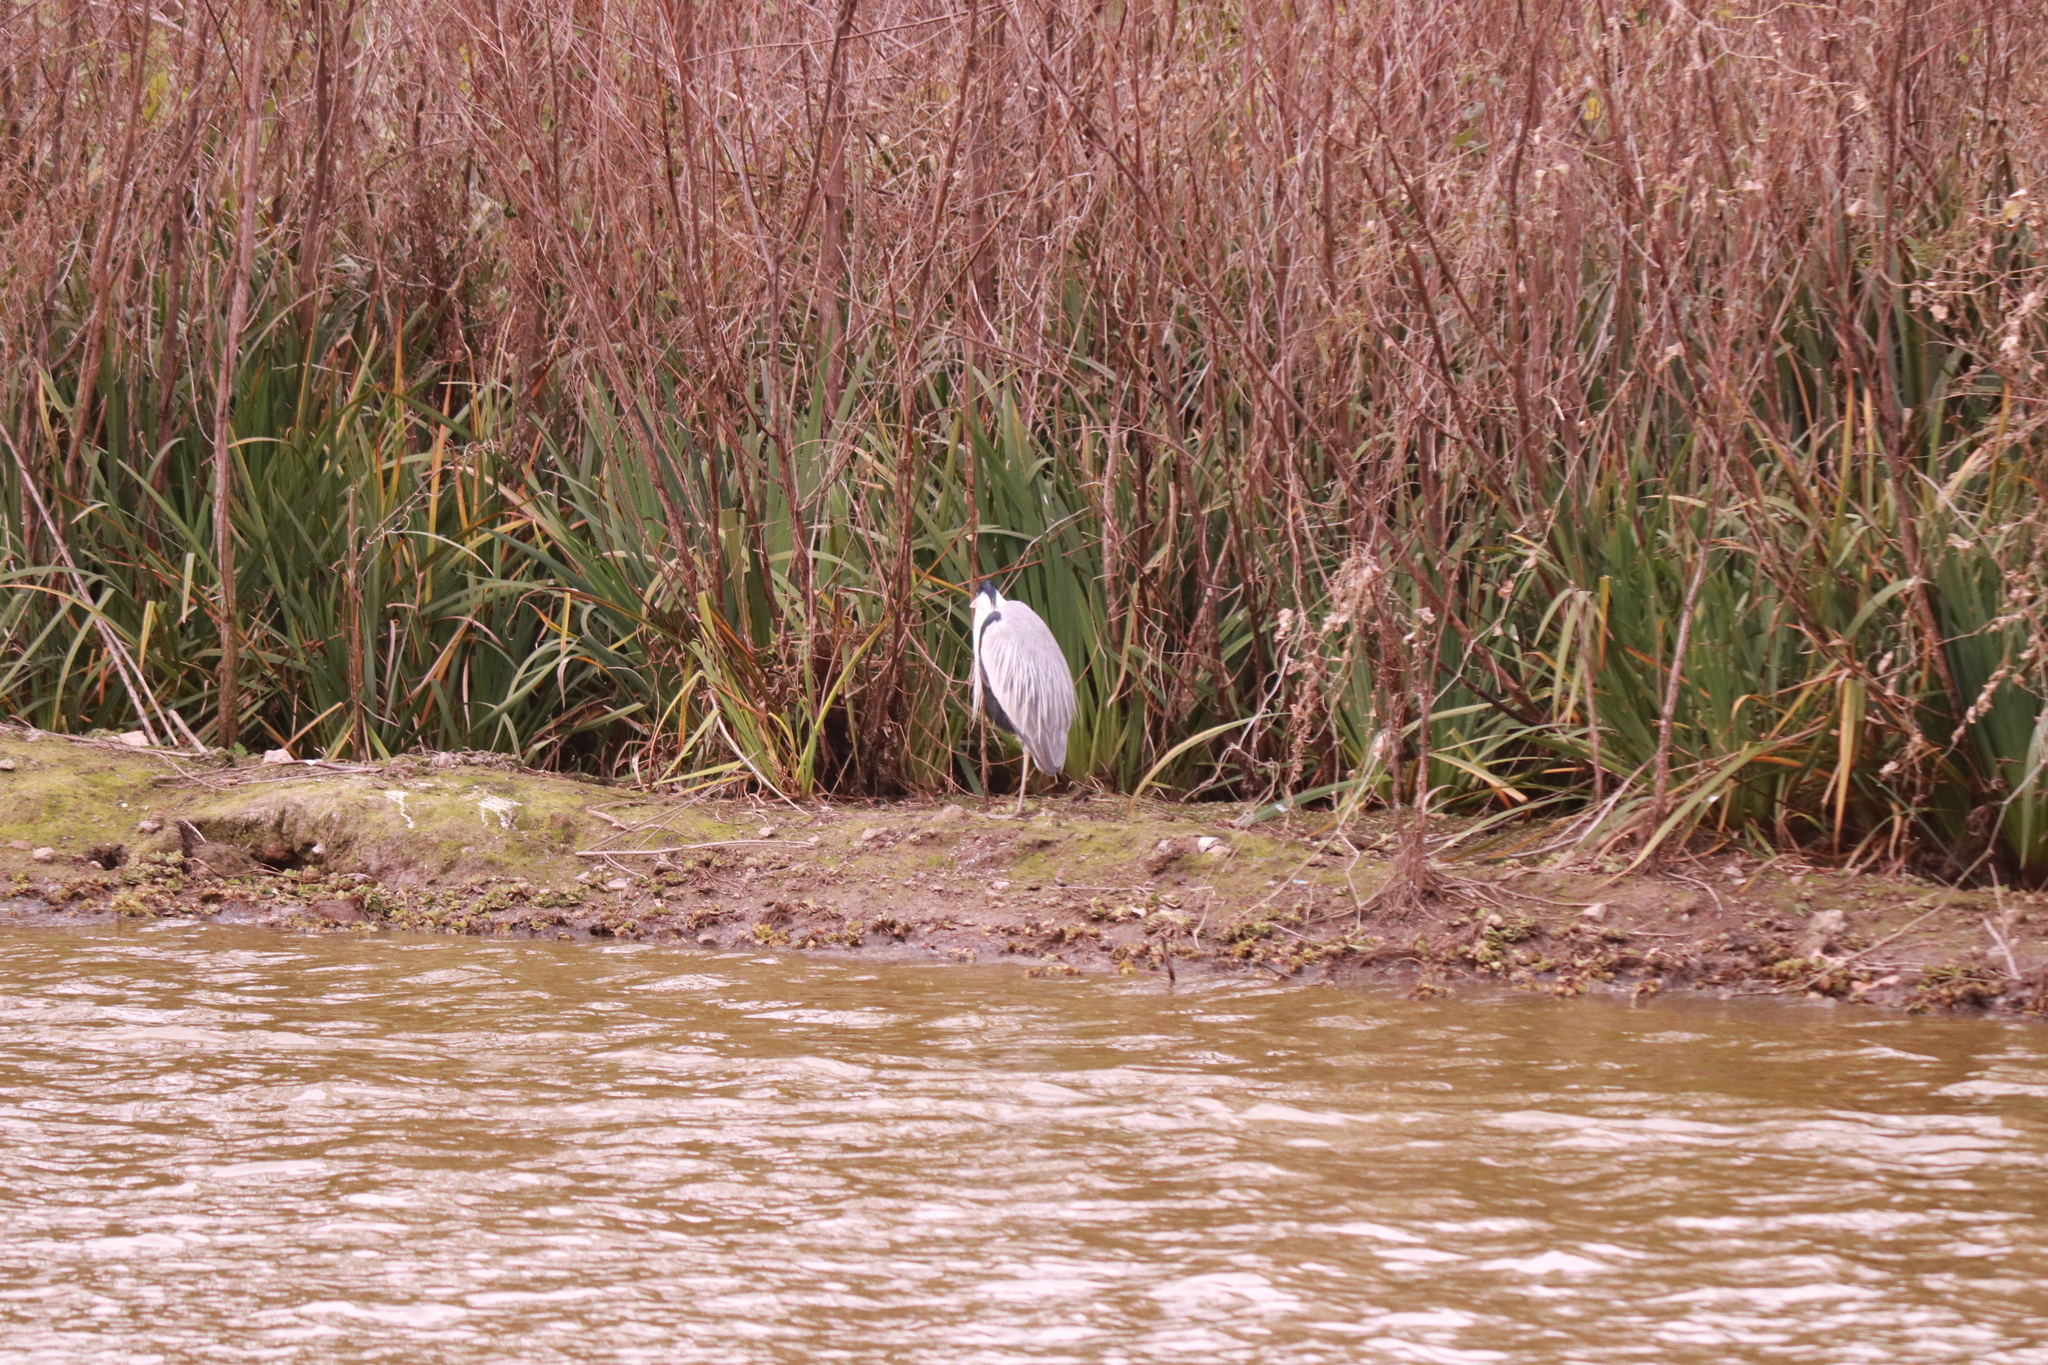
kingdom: Animalia
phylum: Chordata
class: Aves
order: Pelecaniformes
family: Ardeidae
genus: Ardea
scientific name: Ardea cocoi
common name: Cocoi heron
